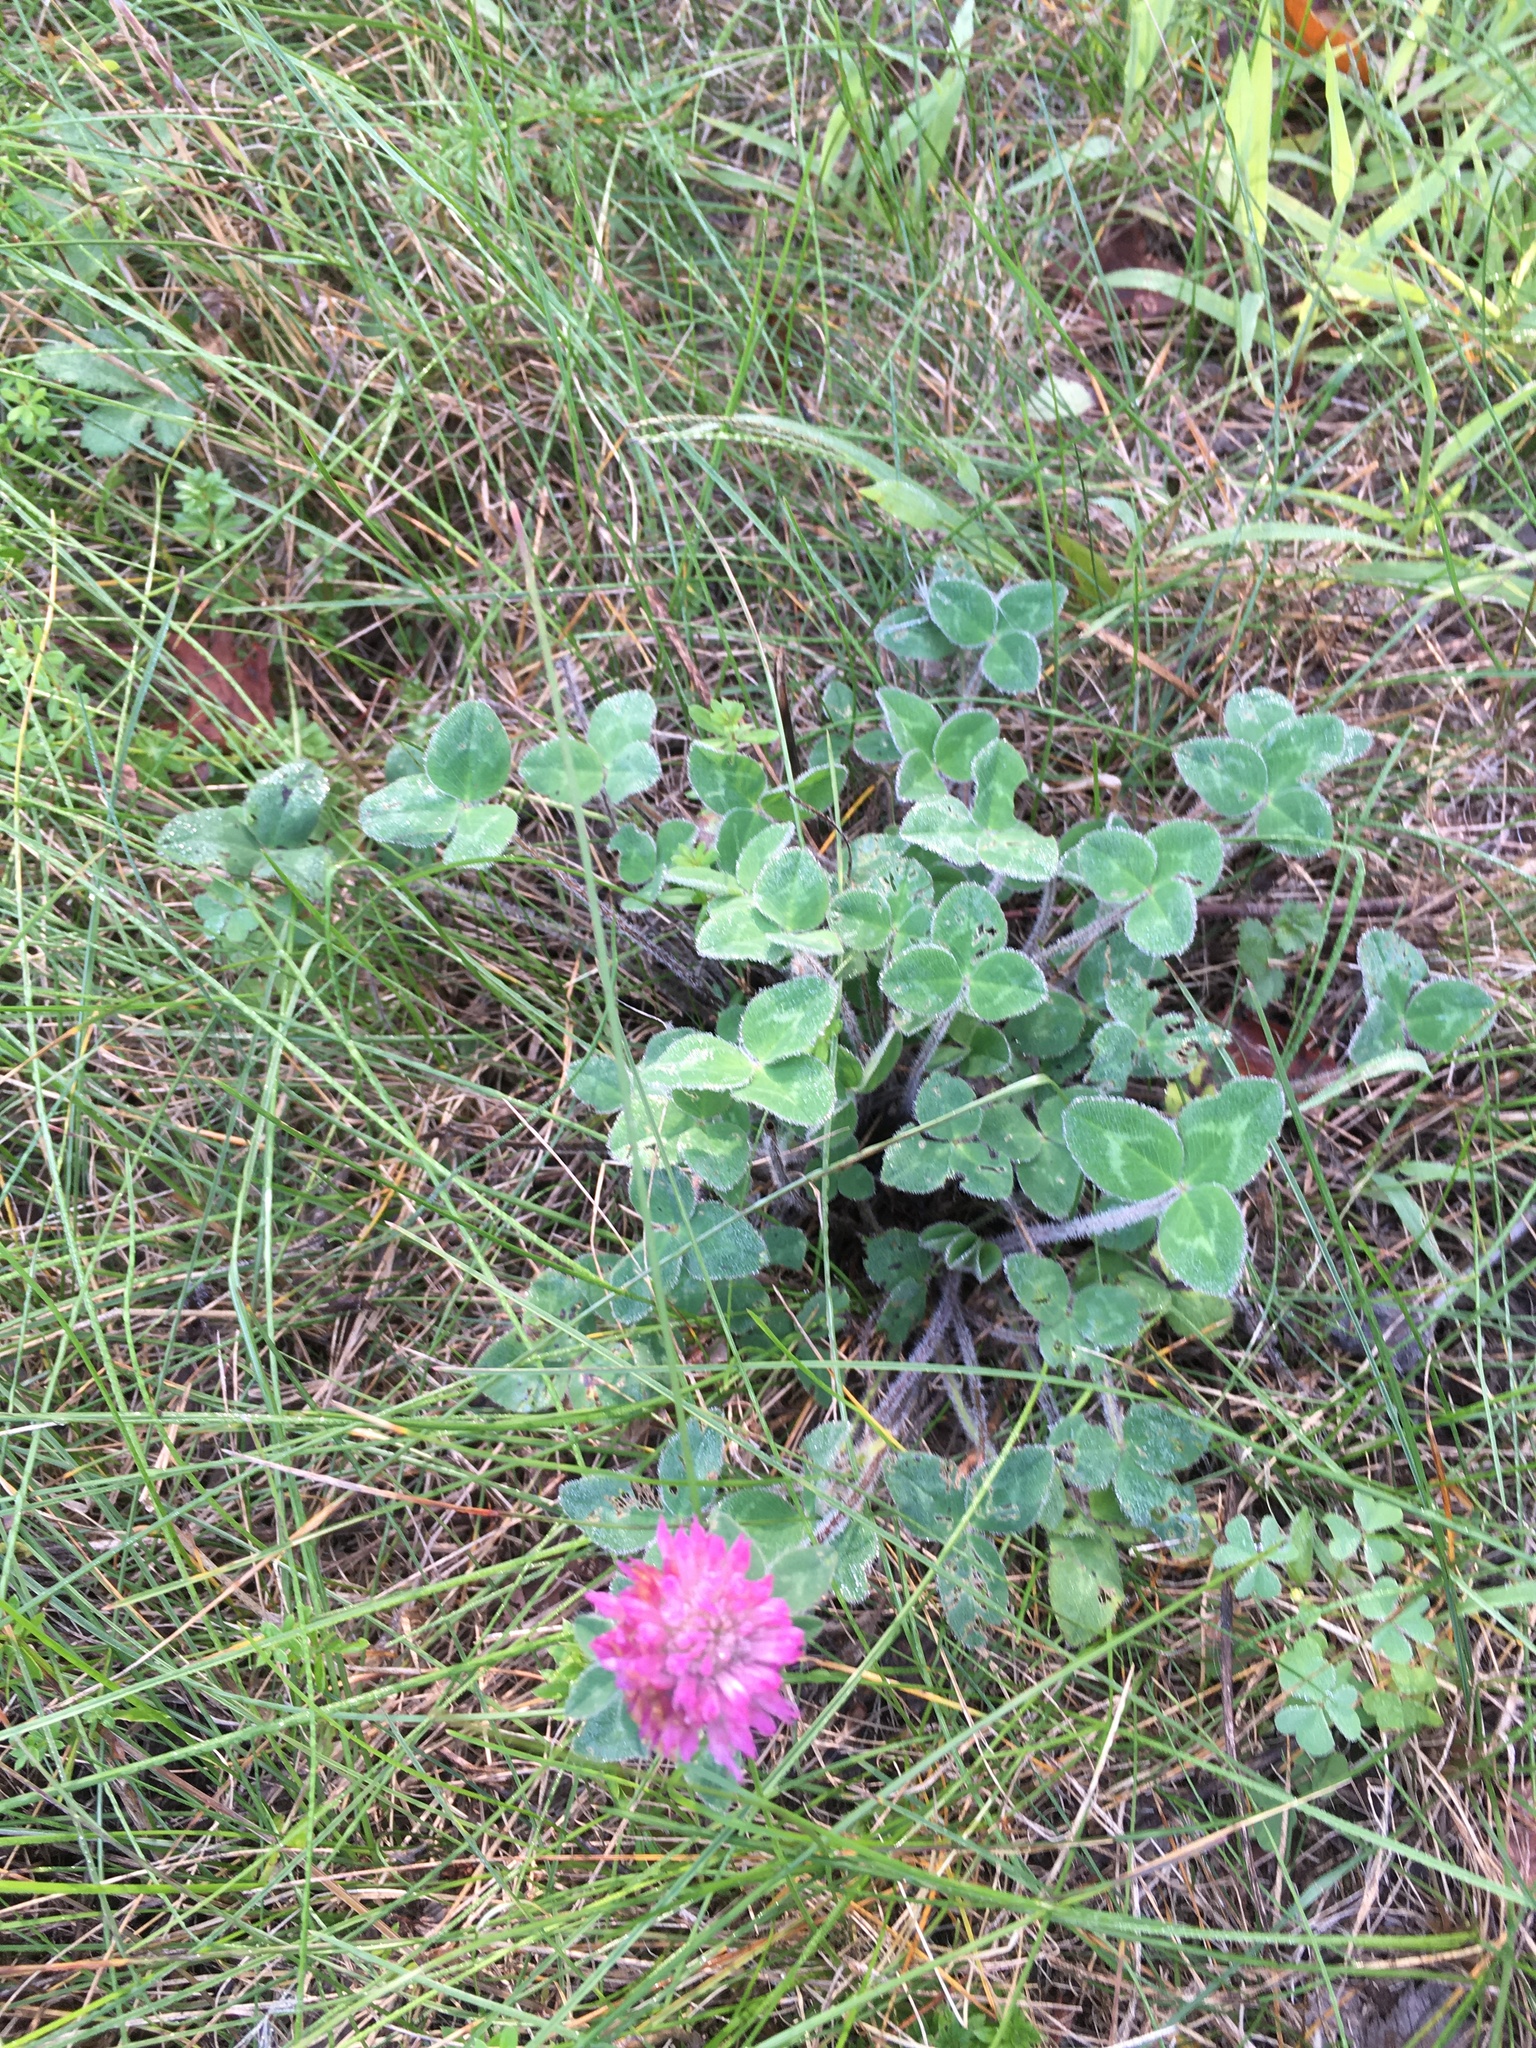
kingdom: Plantae
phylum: Tracheophyta
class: Magnoliopsida
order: Fabales
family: Fabaceae
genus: Trifolium
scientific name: Trifolium pratense
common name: Red clover
